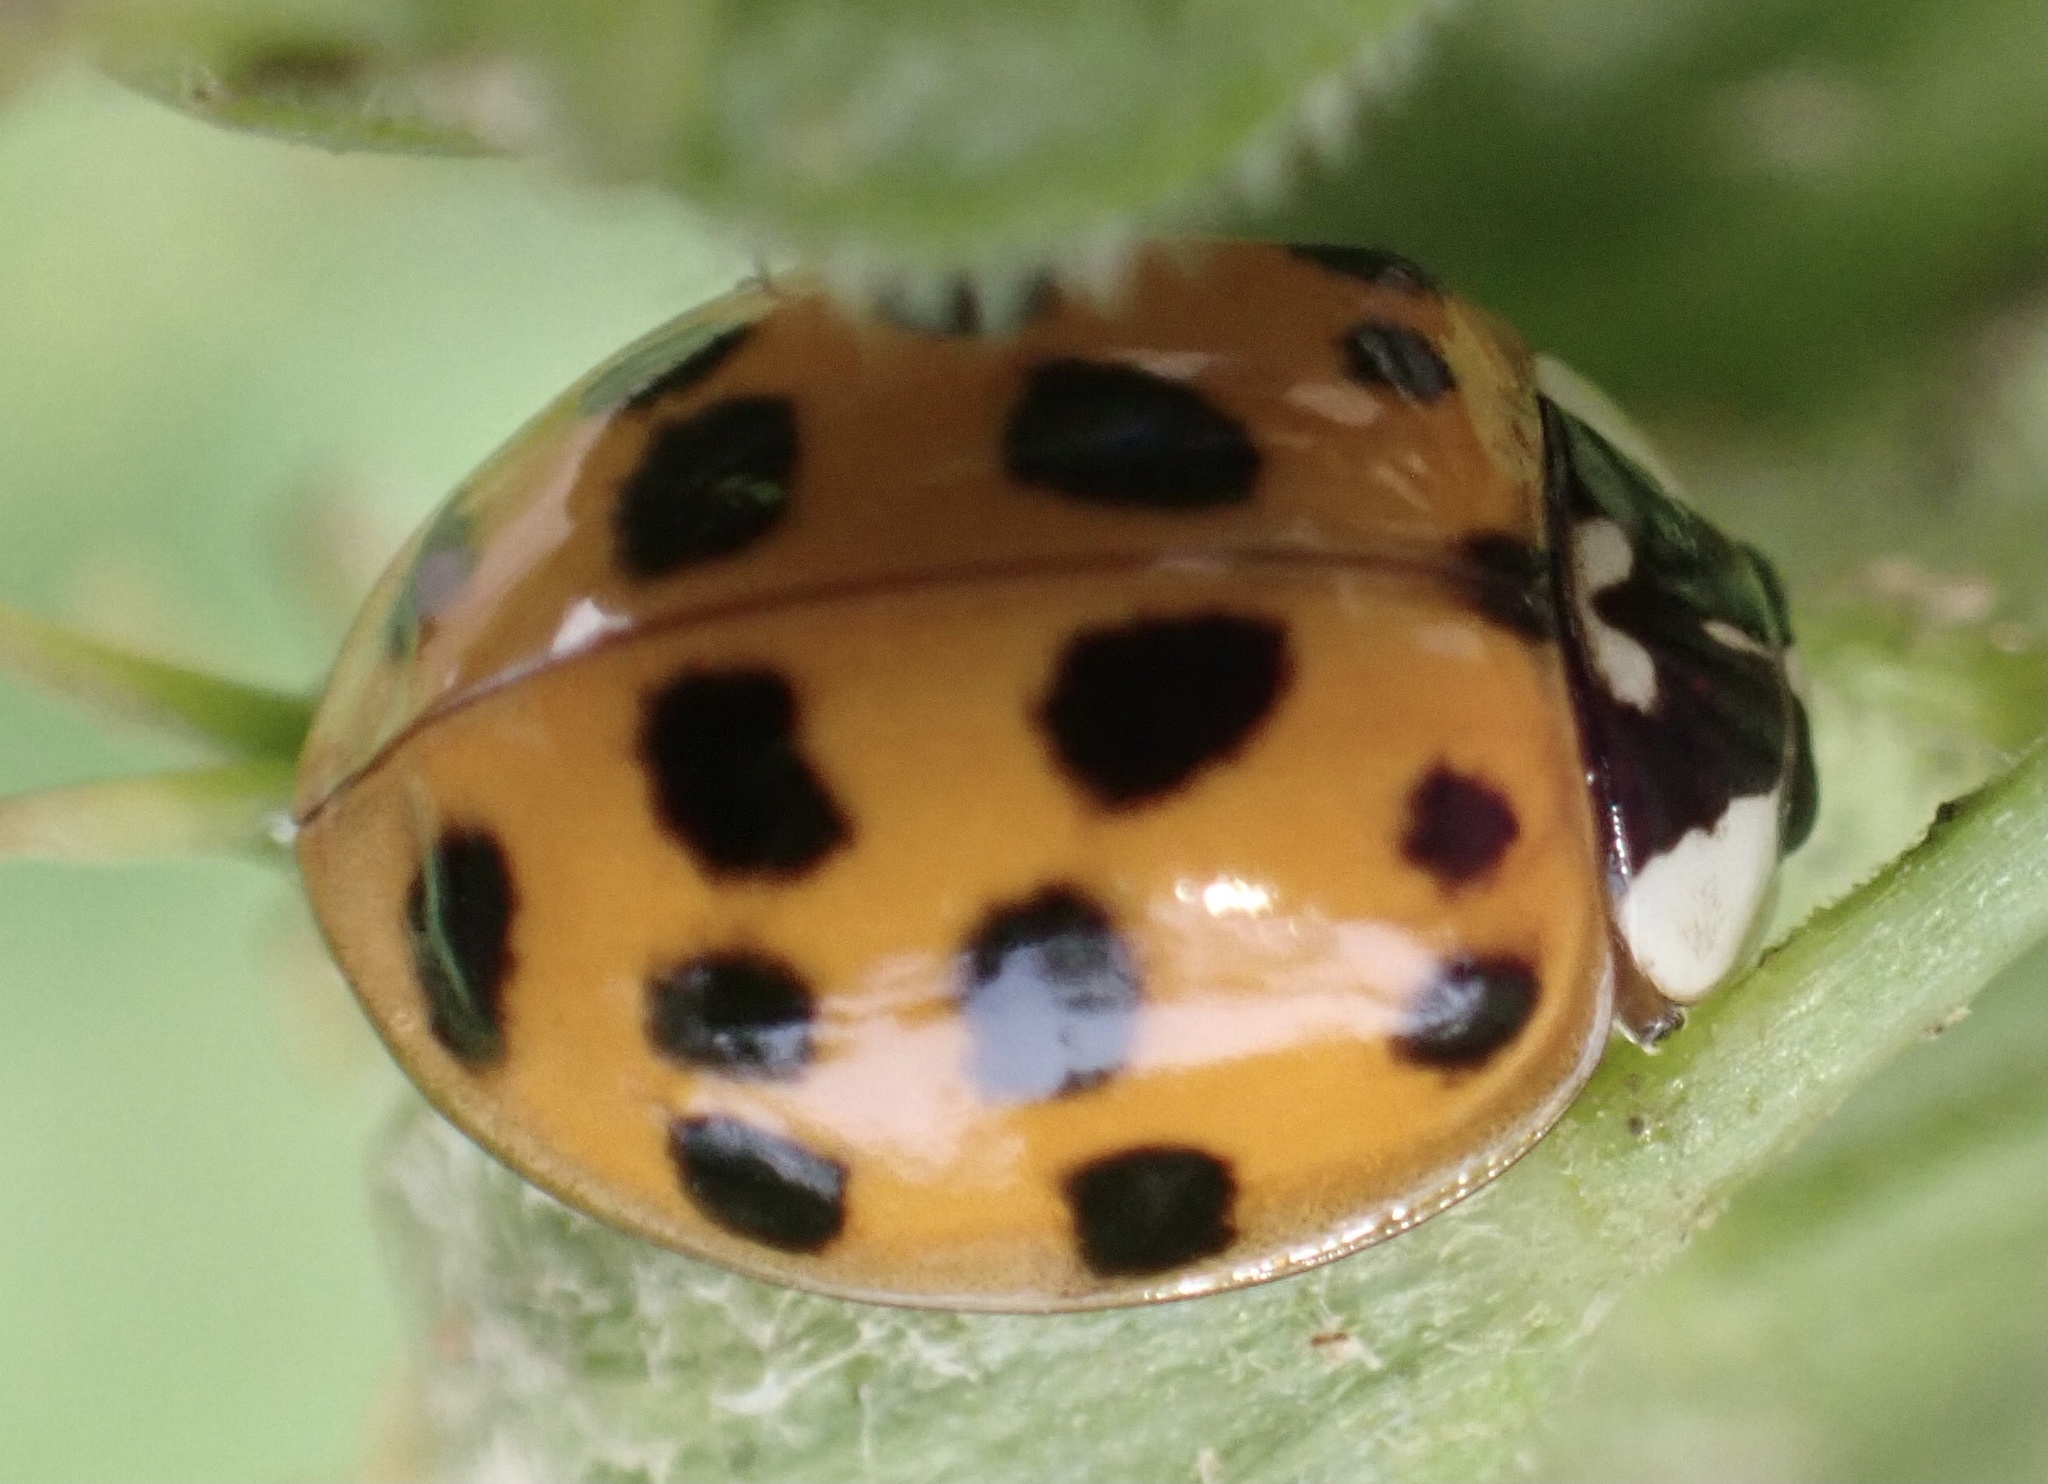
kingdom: Animalia
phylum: Arthropoda
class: Insecta
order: Coleoptera
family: Coccinellidae
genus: Harmonia
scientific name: Harmonia axyridis
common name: Harlequin ladybird
